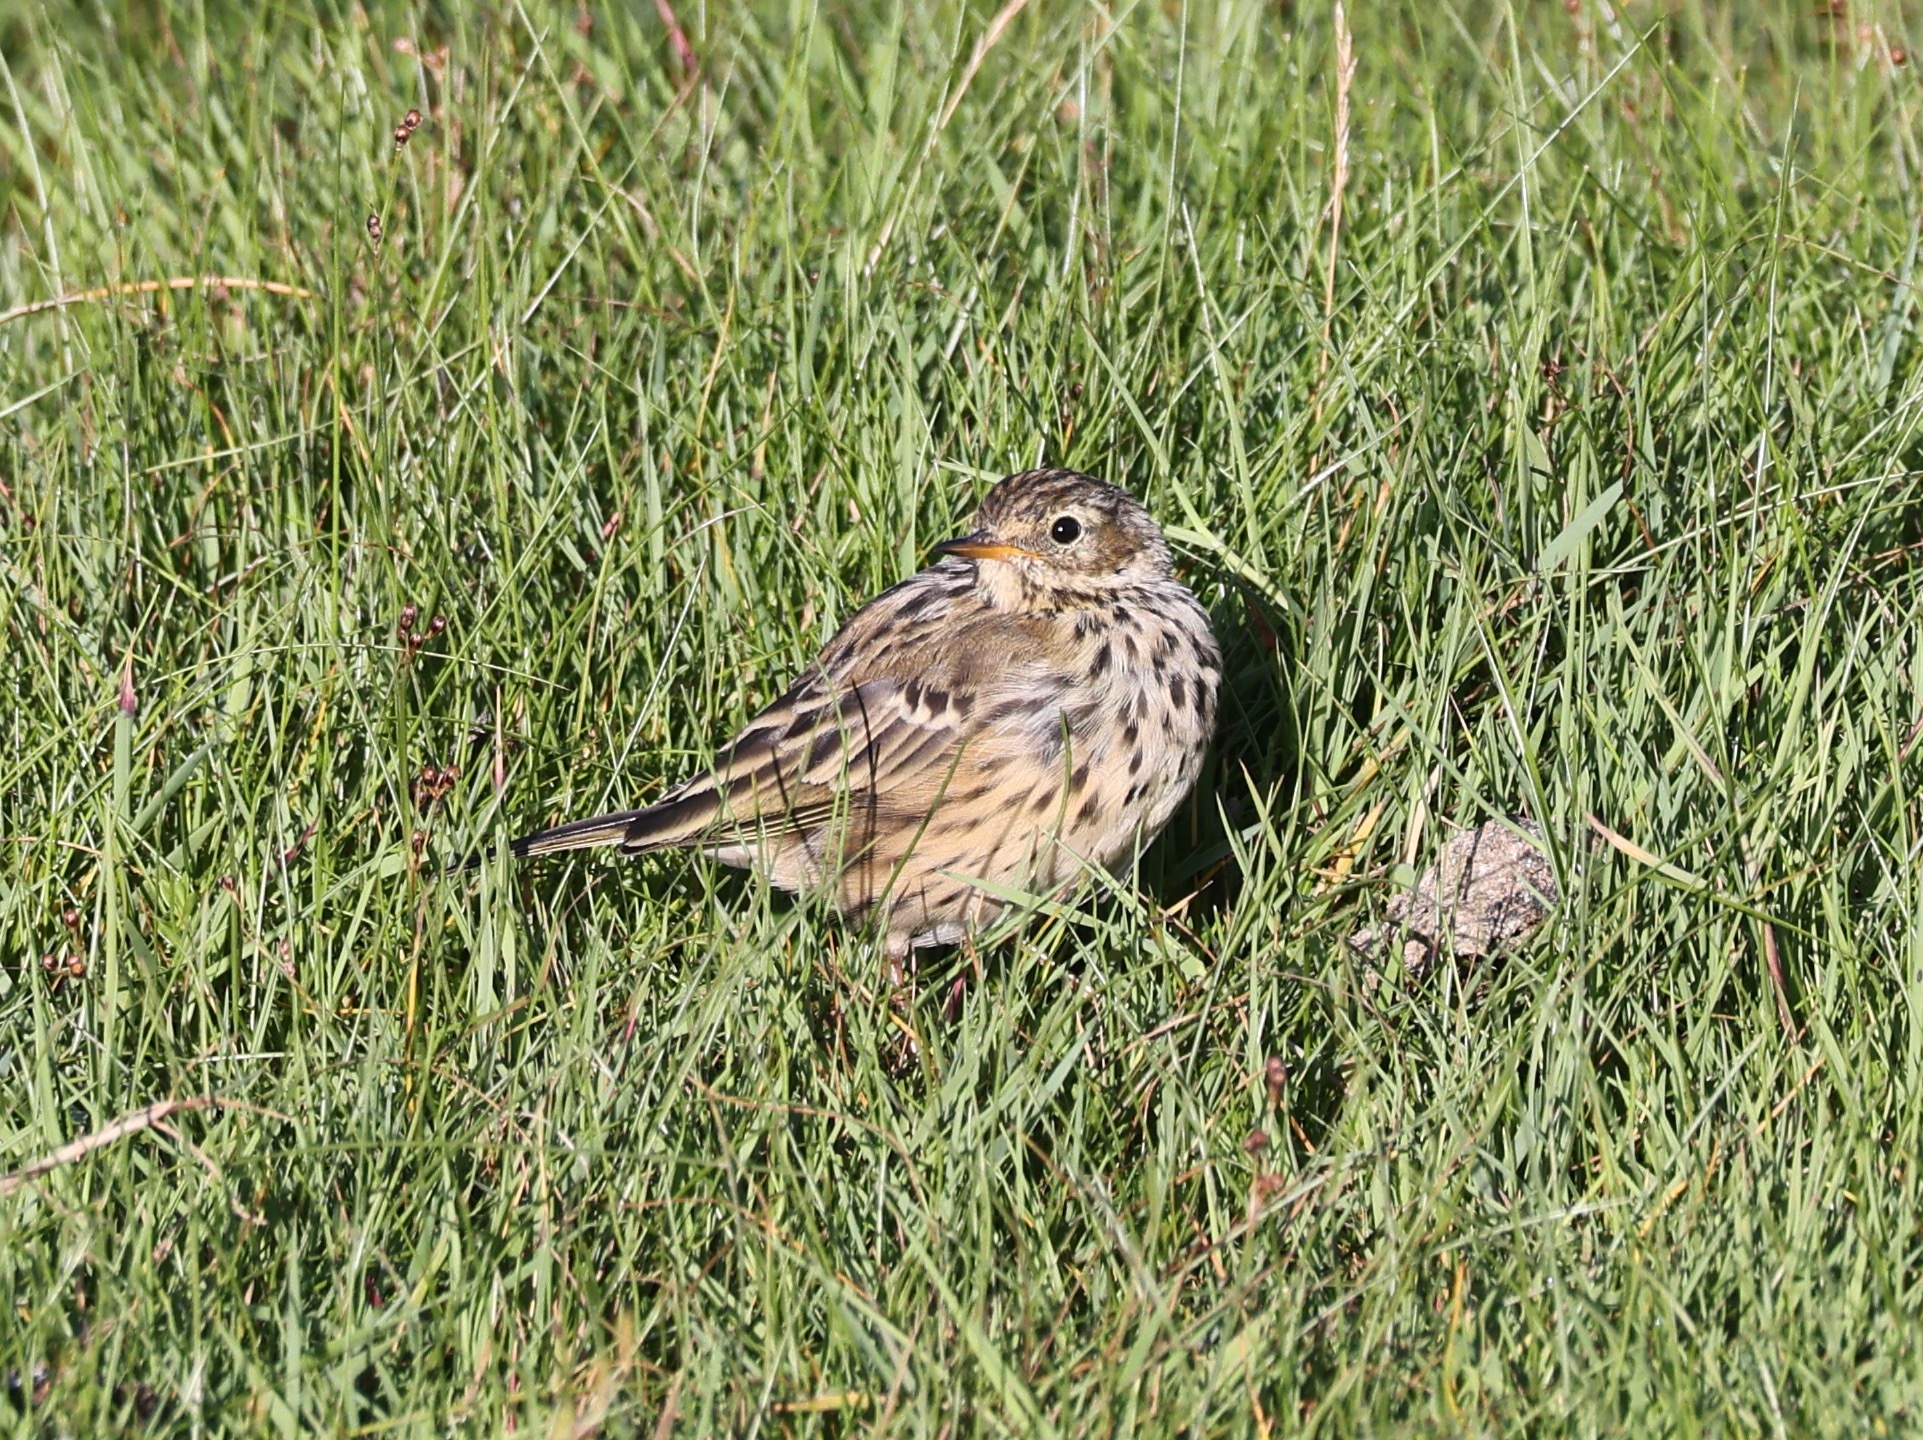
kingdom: Animalia
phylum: Chordata
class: Aves
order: Passeriformes
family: Motacillidae
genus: Anthus
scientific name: Anthus pratensis
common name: Meadow pipit
